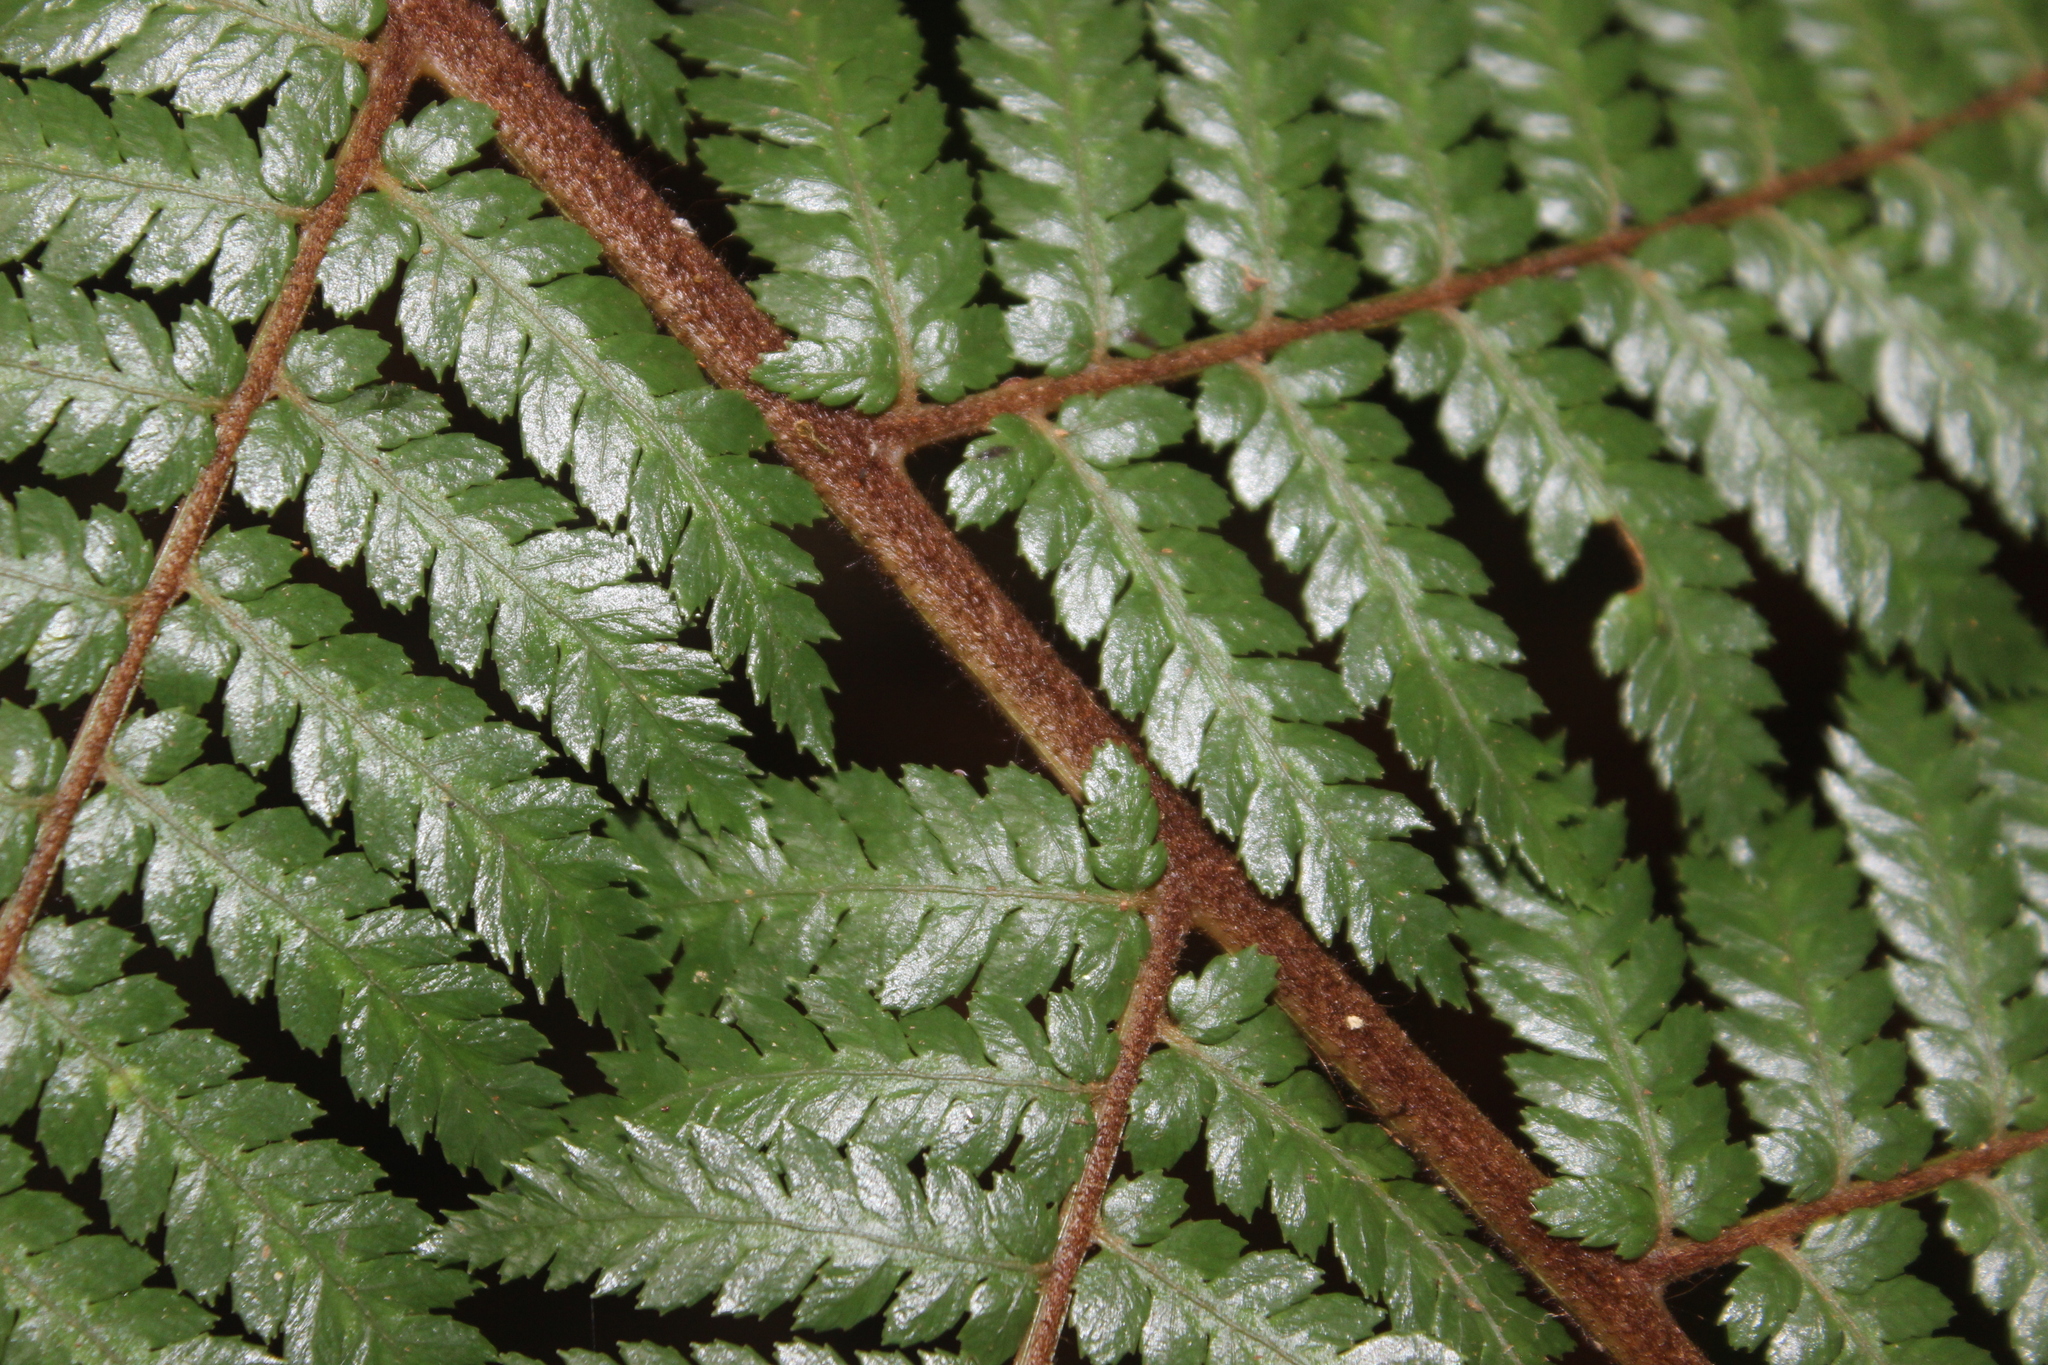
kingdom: Plantae
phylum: Tracheophyta
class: Polypodiopsida
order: Cyatheales
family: Dicksoniaceae
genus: Dicksonia
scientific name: Dicksonia squarrosa
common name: Hard treefern
